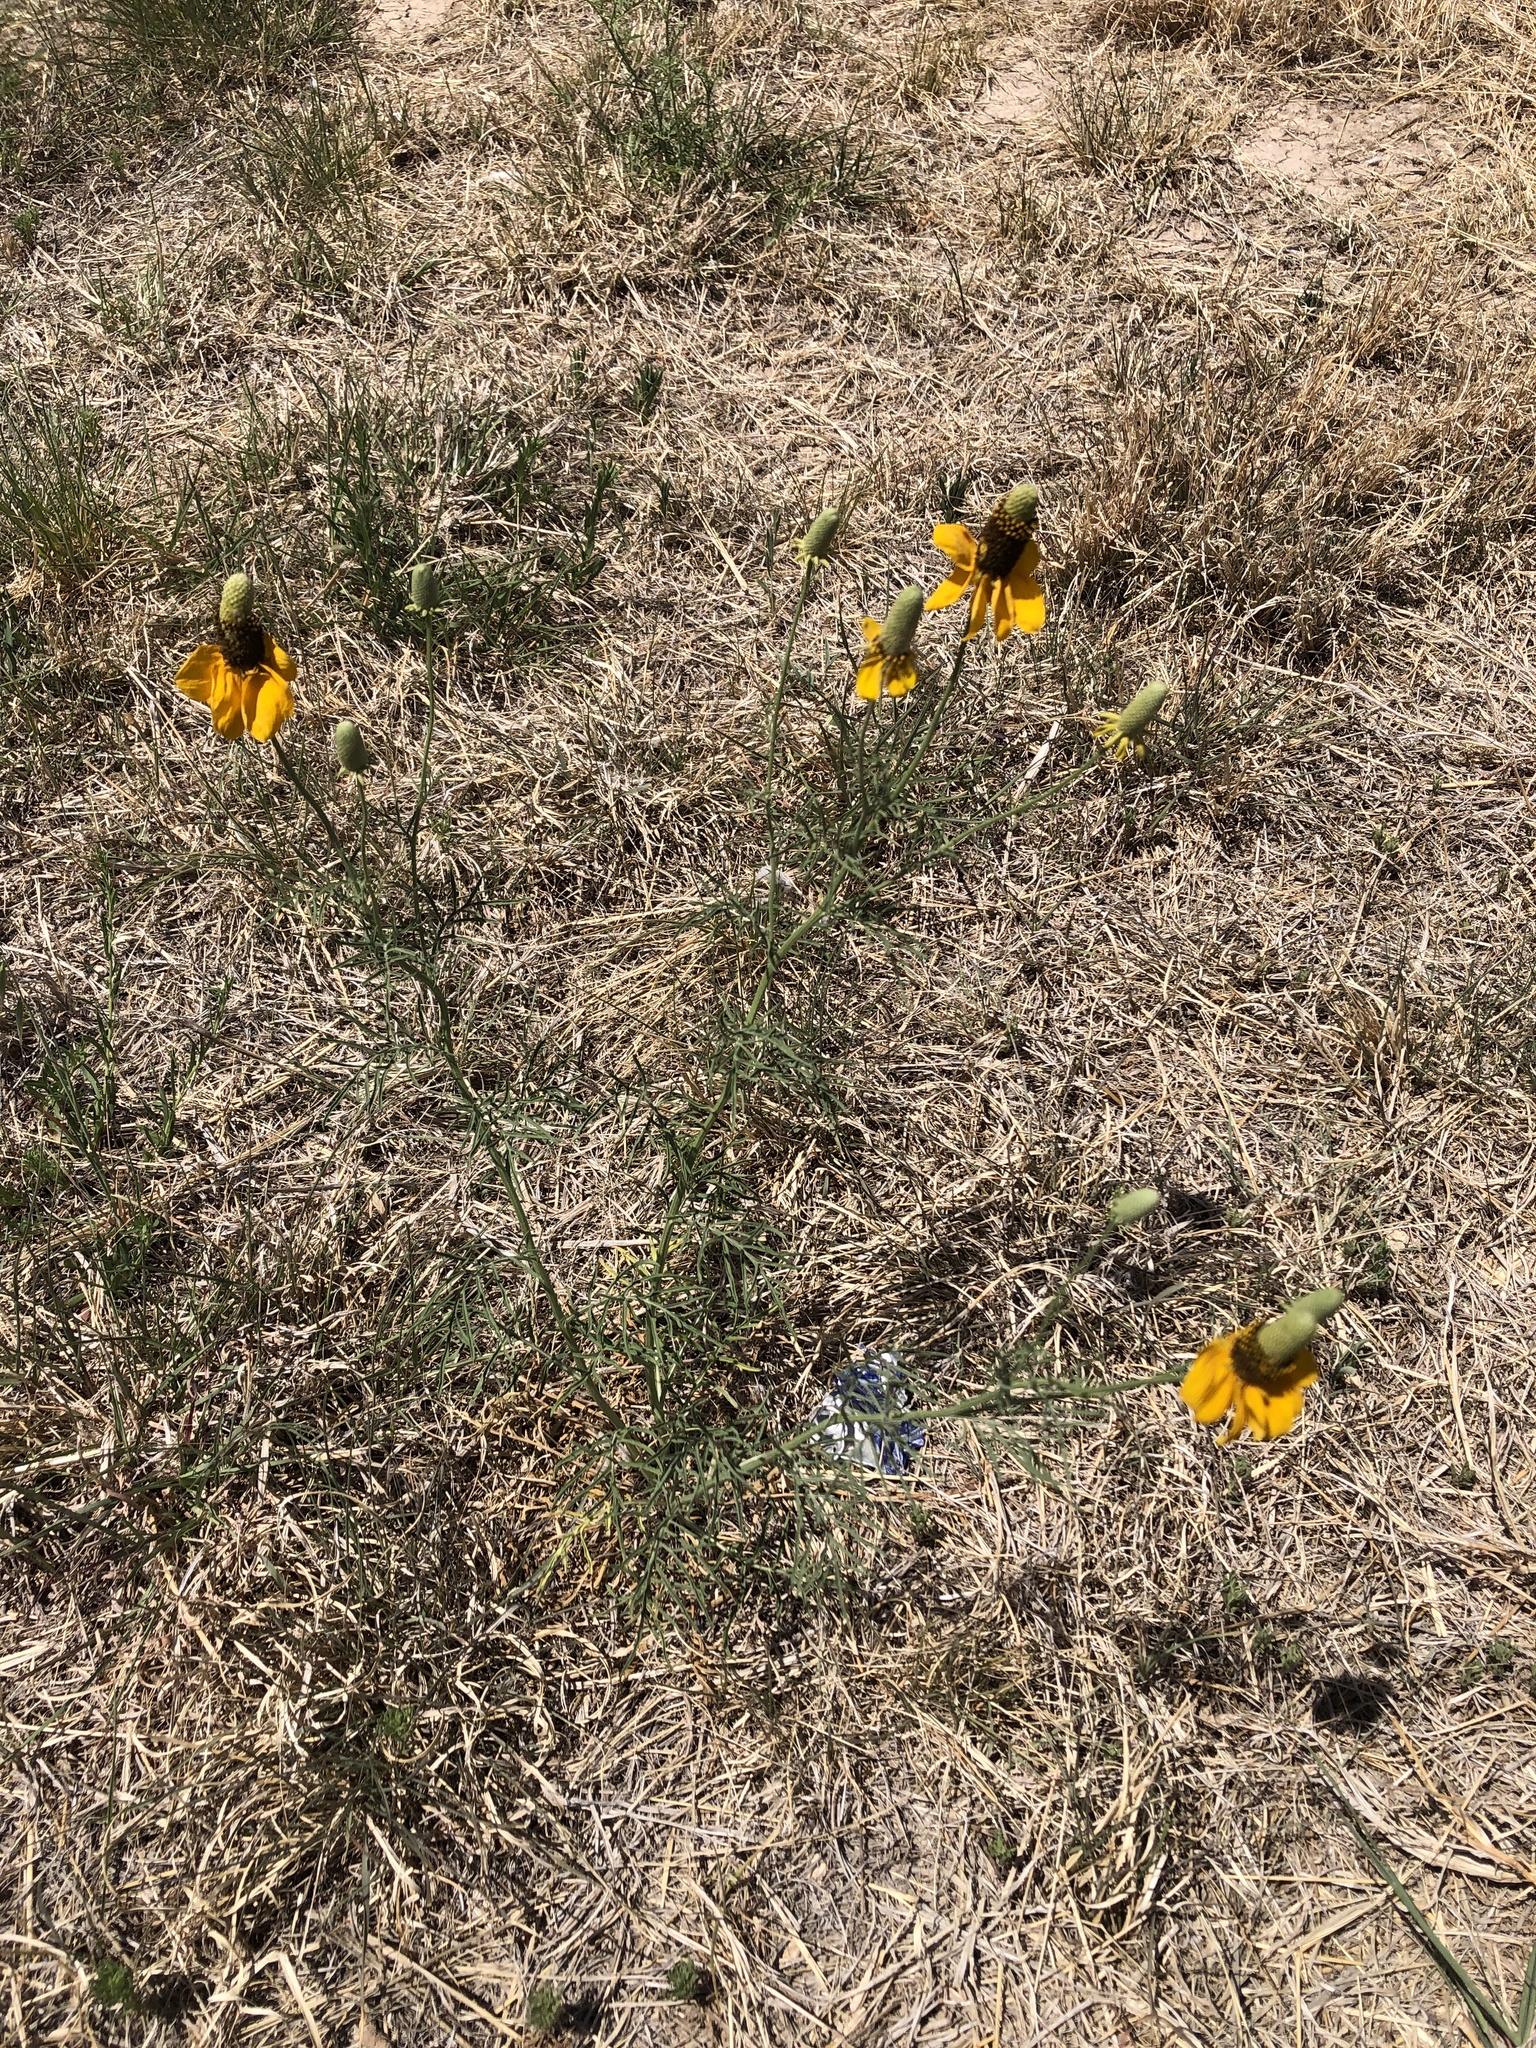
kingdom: Plantae
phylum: Tracheophyta
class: Magnoliopsida
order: Asterales
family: Asteraceae
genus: Ratibida
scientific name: Ratibida columnifera
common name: Prairie coneflower
